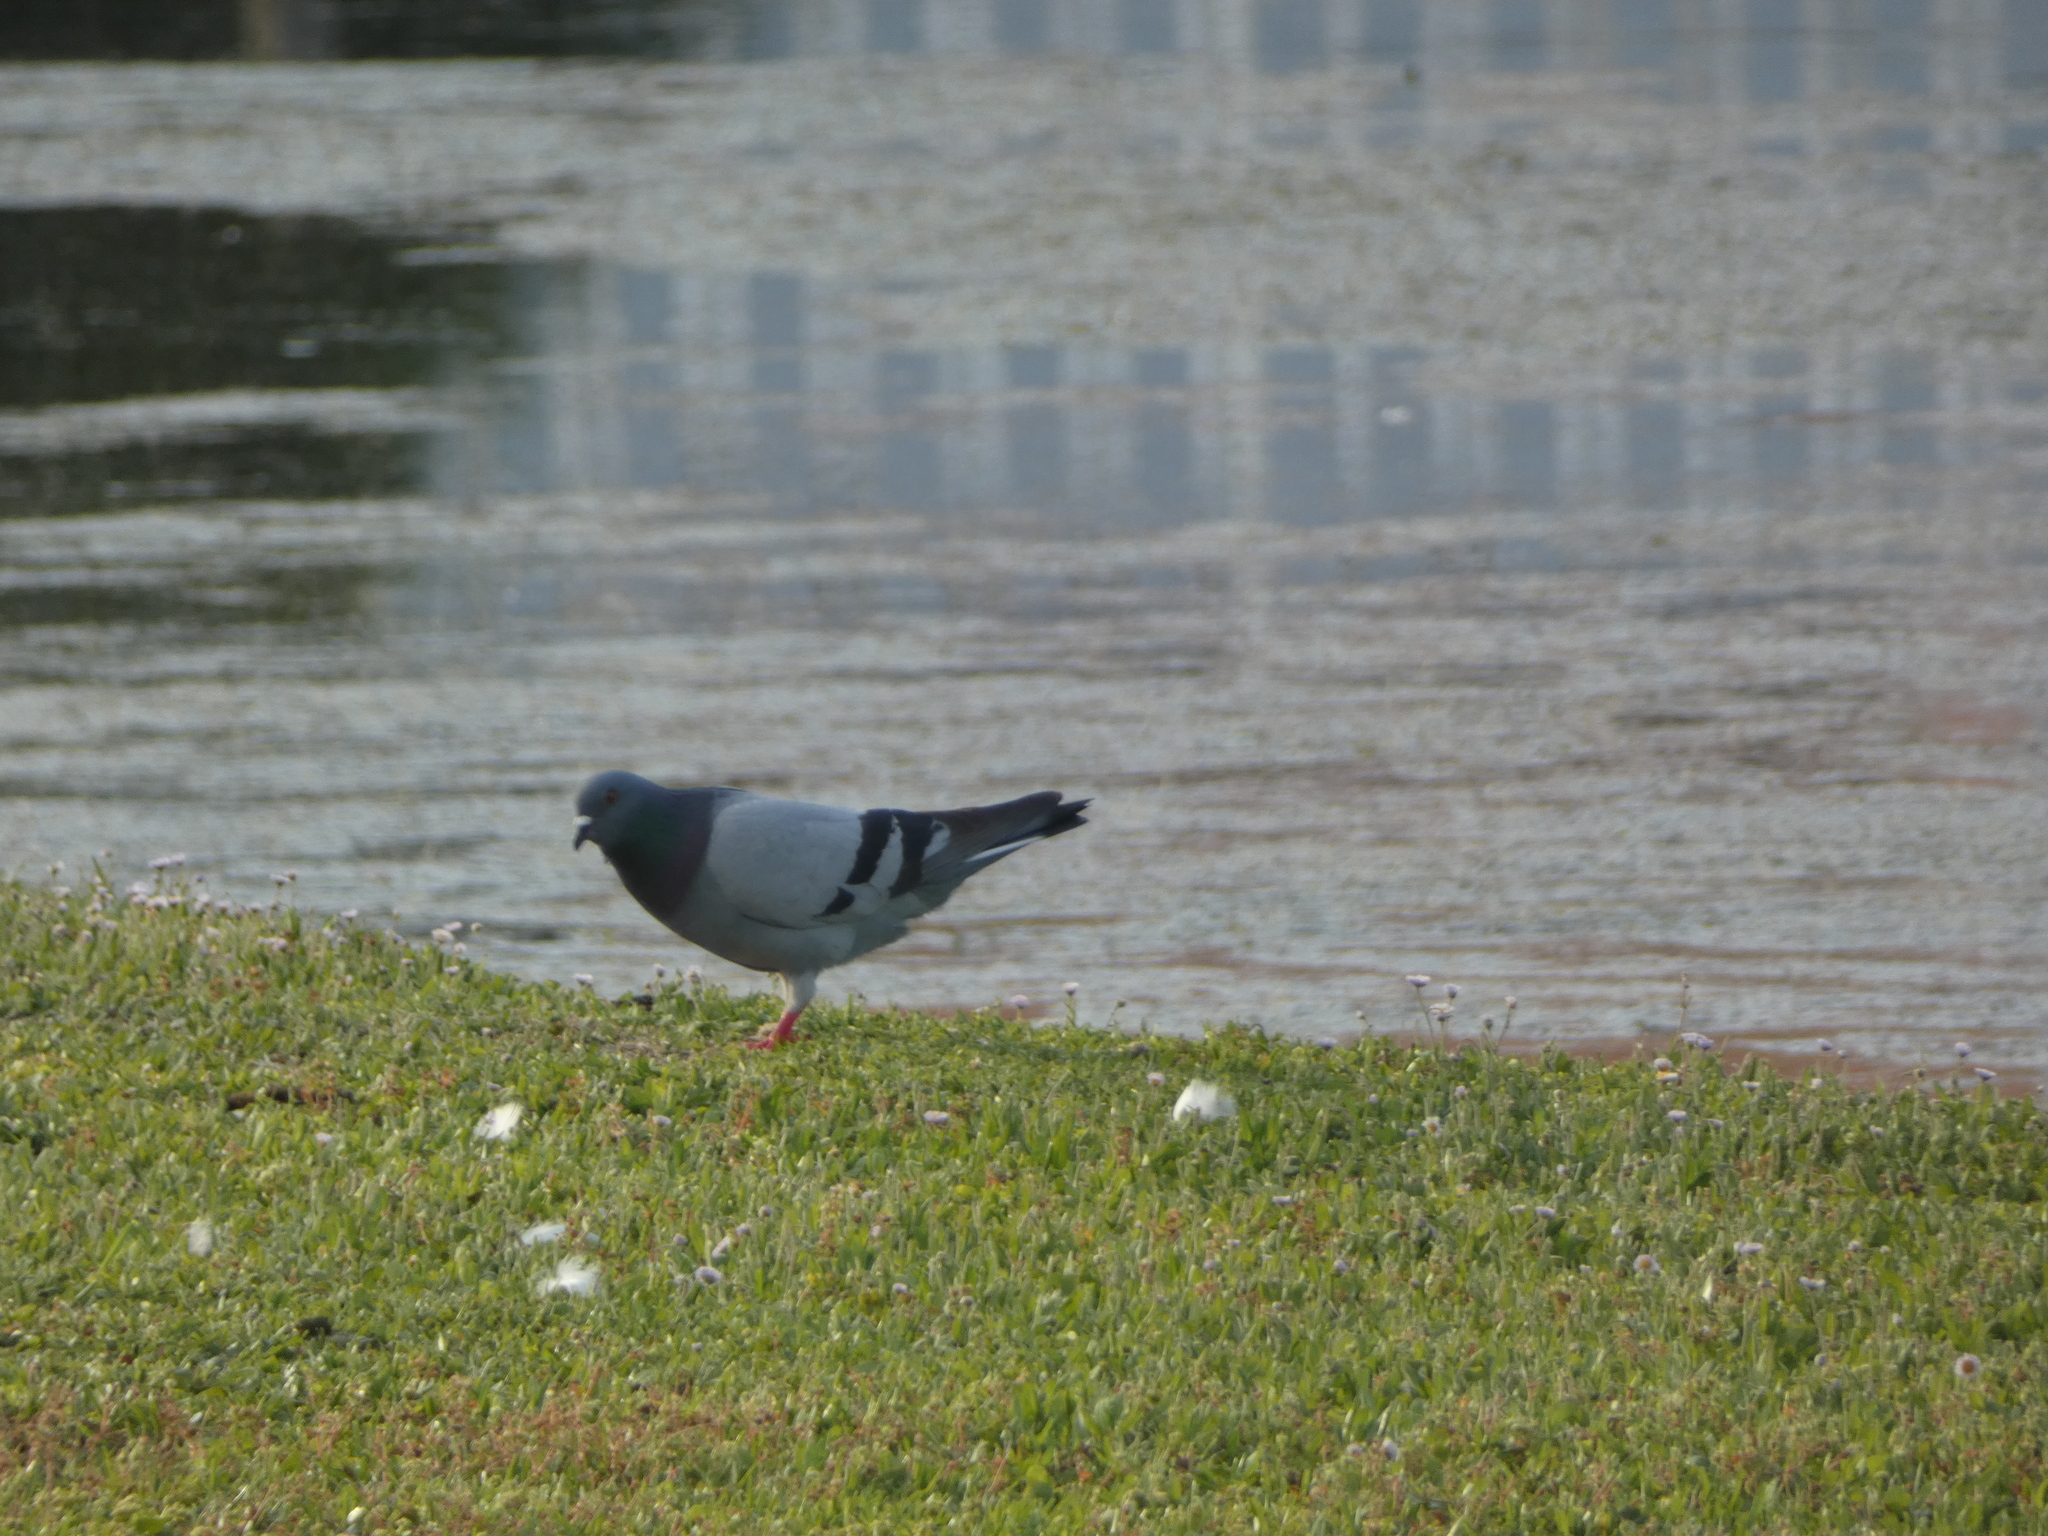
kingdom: Animalia
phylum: Chordata
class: Aves
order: Columbiformes
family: Columbidae
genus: Columba
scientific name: Columba livia
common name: Rock pigeon
